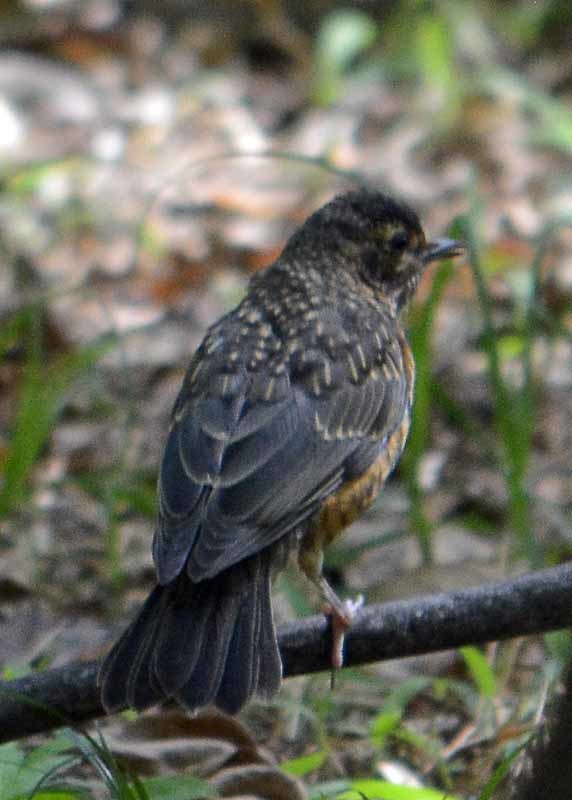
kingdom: Animalia
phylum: Chordata
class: Aves
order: Passeriformes
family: Turdidae
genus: Turdus
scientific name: Turdus migratorius
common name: American robin
